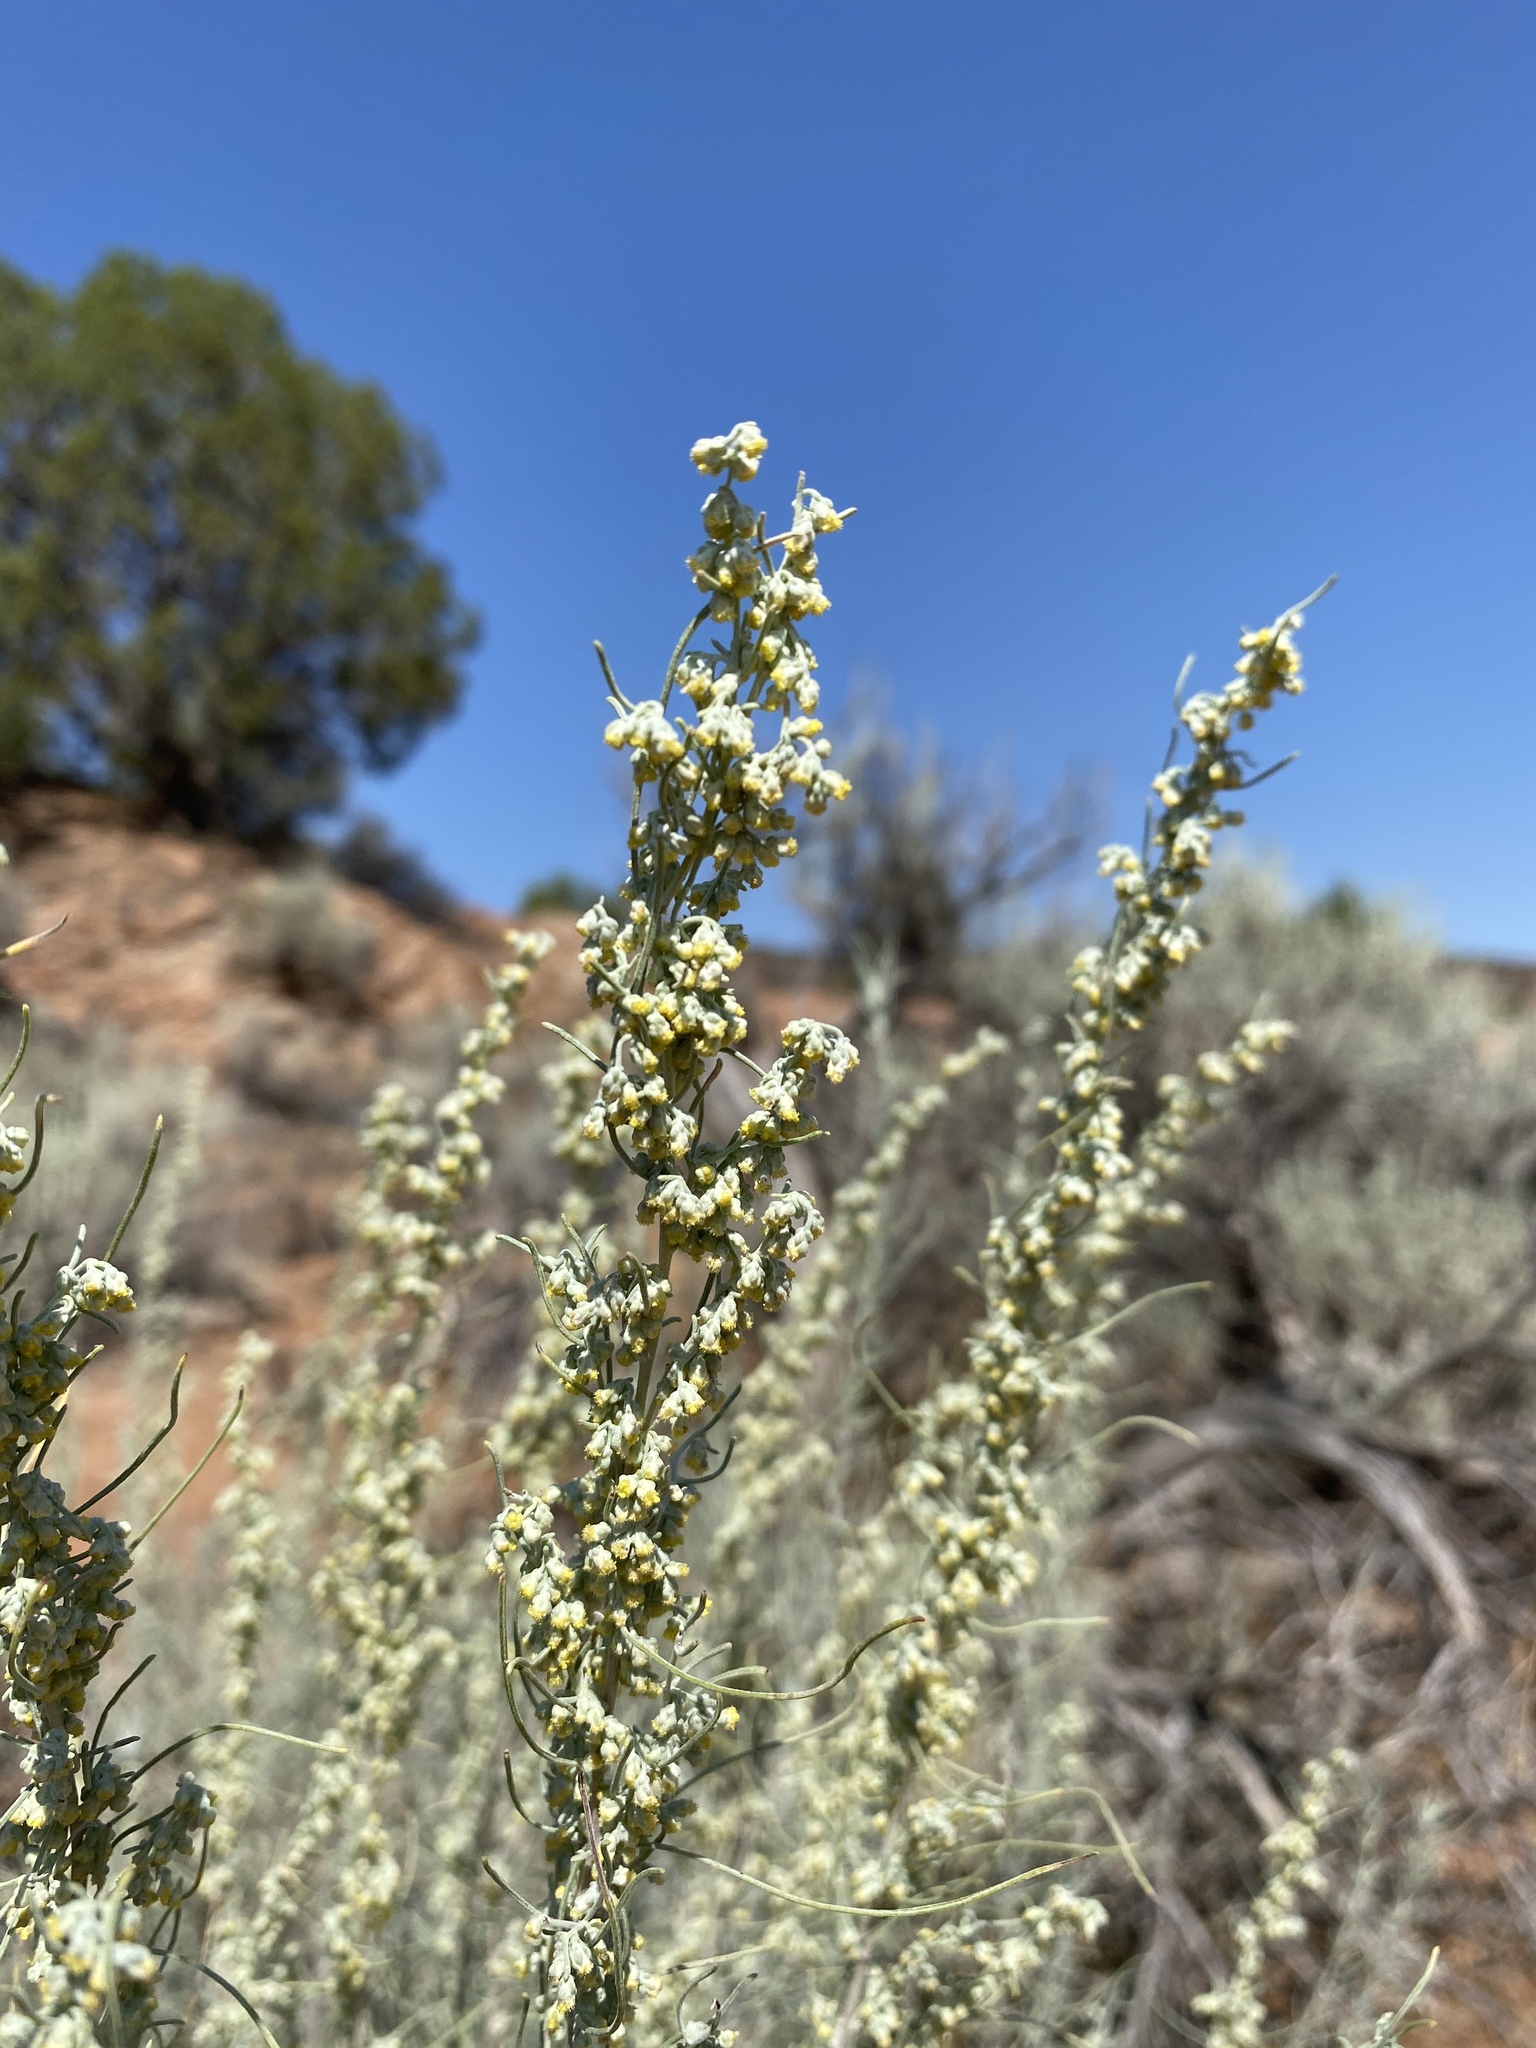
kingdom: Plantae
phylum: Tracheophyta
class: Magnoliopsida
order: Asterales
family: Asteraceae
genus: Artemisia
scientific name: Artemisia filifolia
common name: Sand-sage
